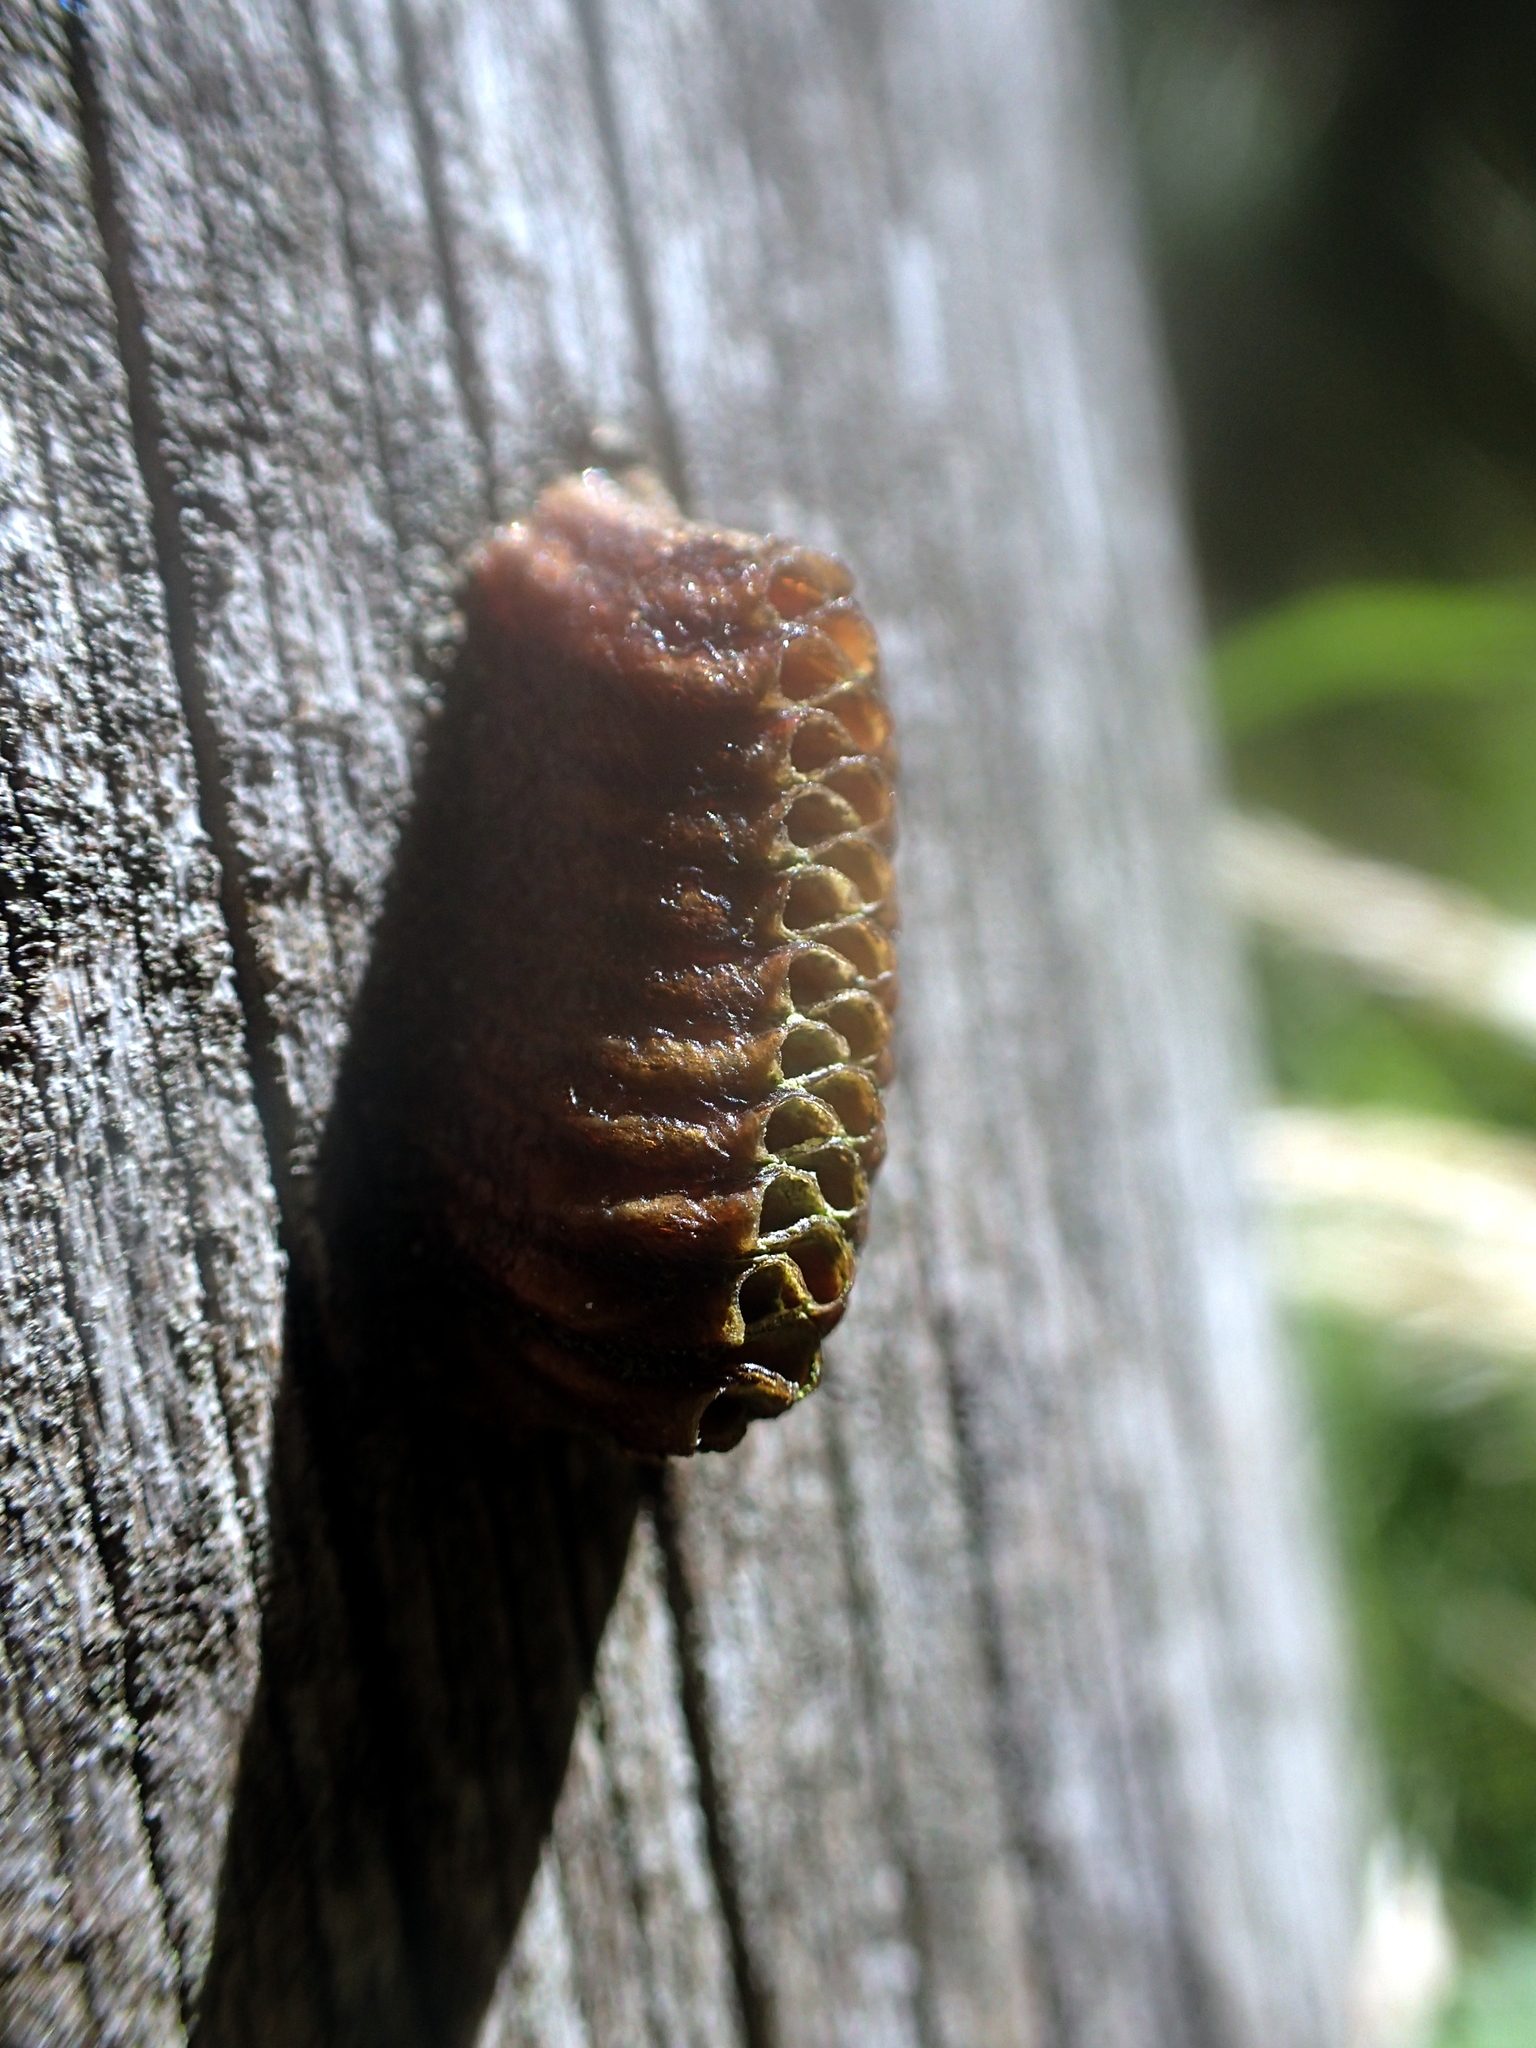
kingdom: Animalia
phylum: Arthropoda
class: Insecta
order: Mantodea
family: Mantidae
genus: Orthodera
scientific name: Orthodera novaezealandiae
